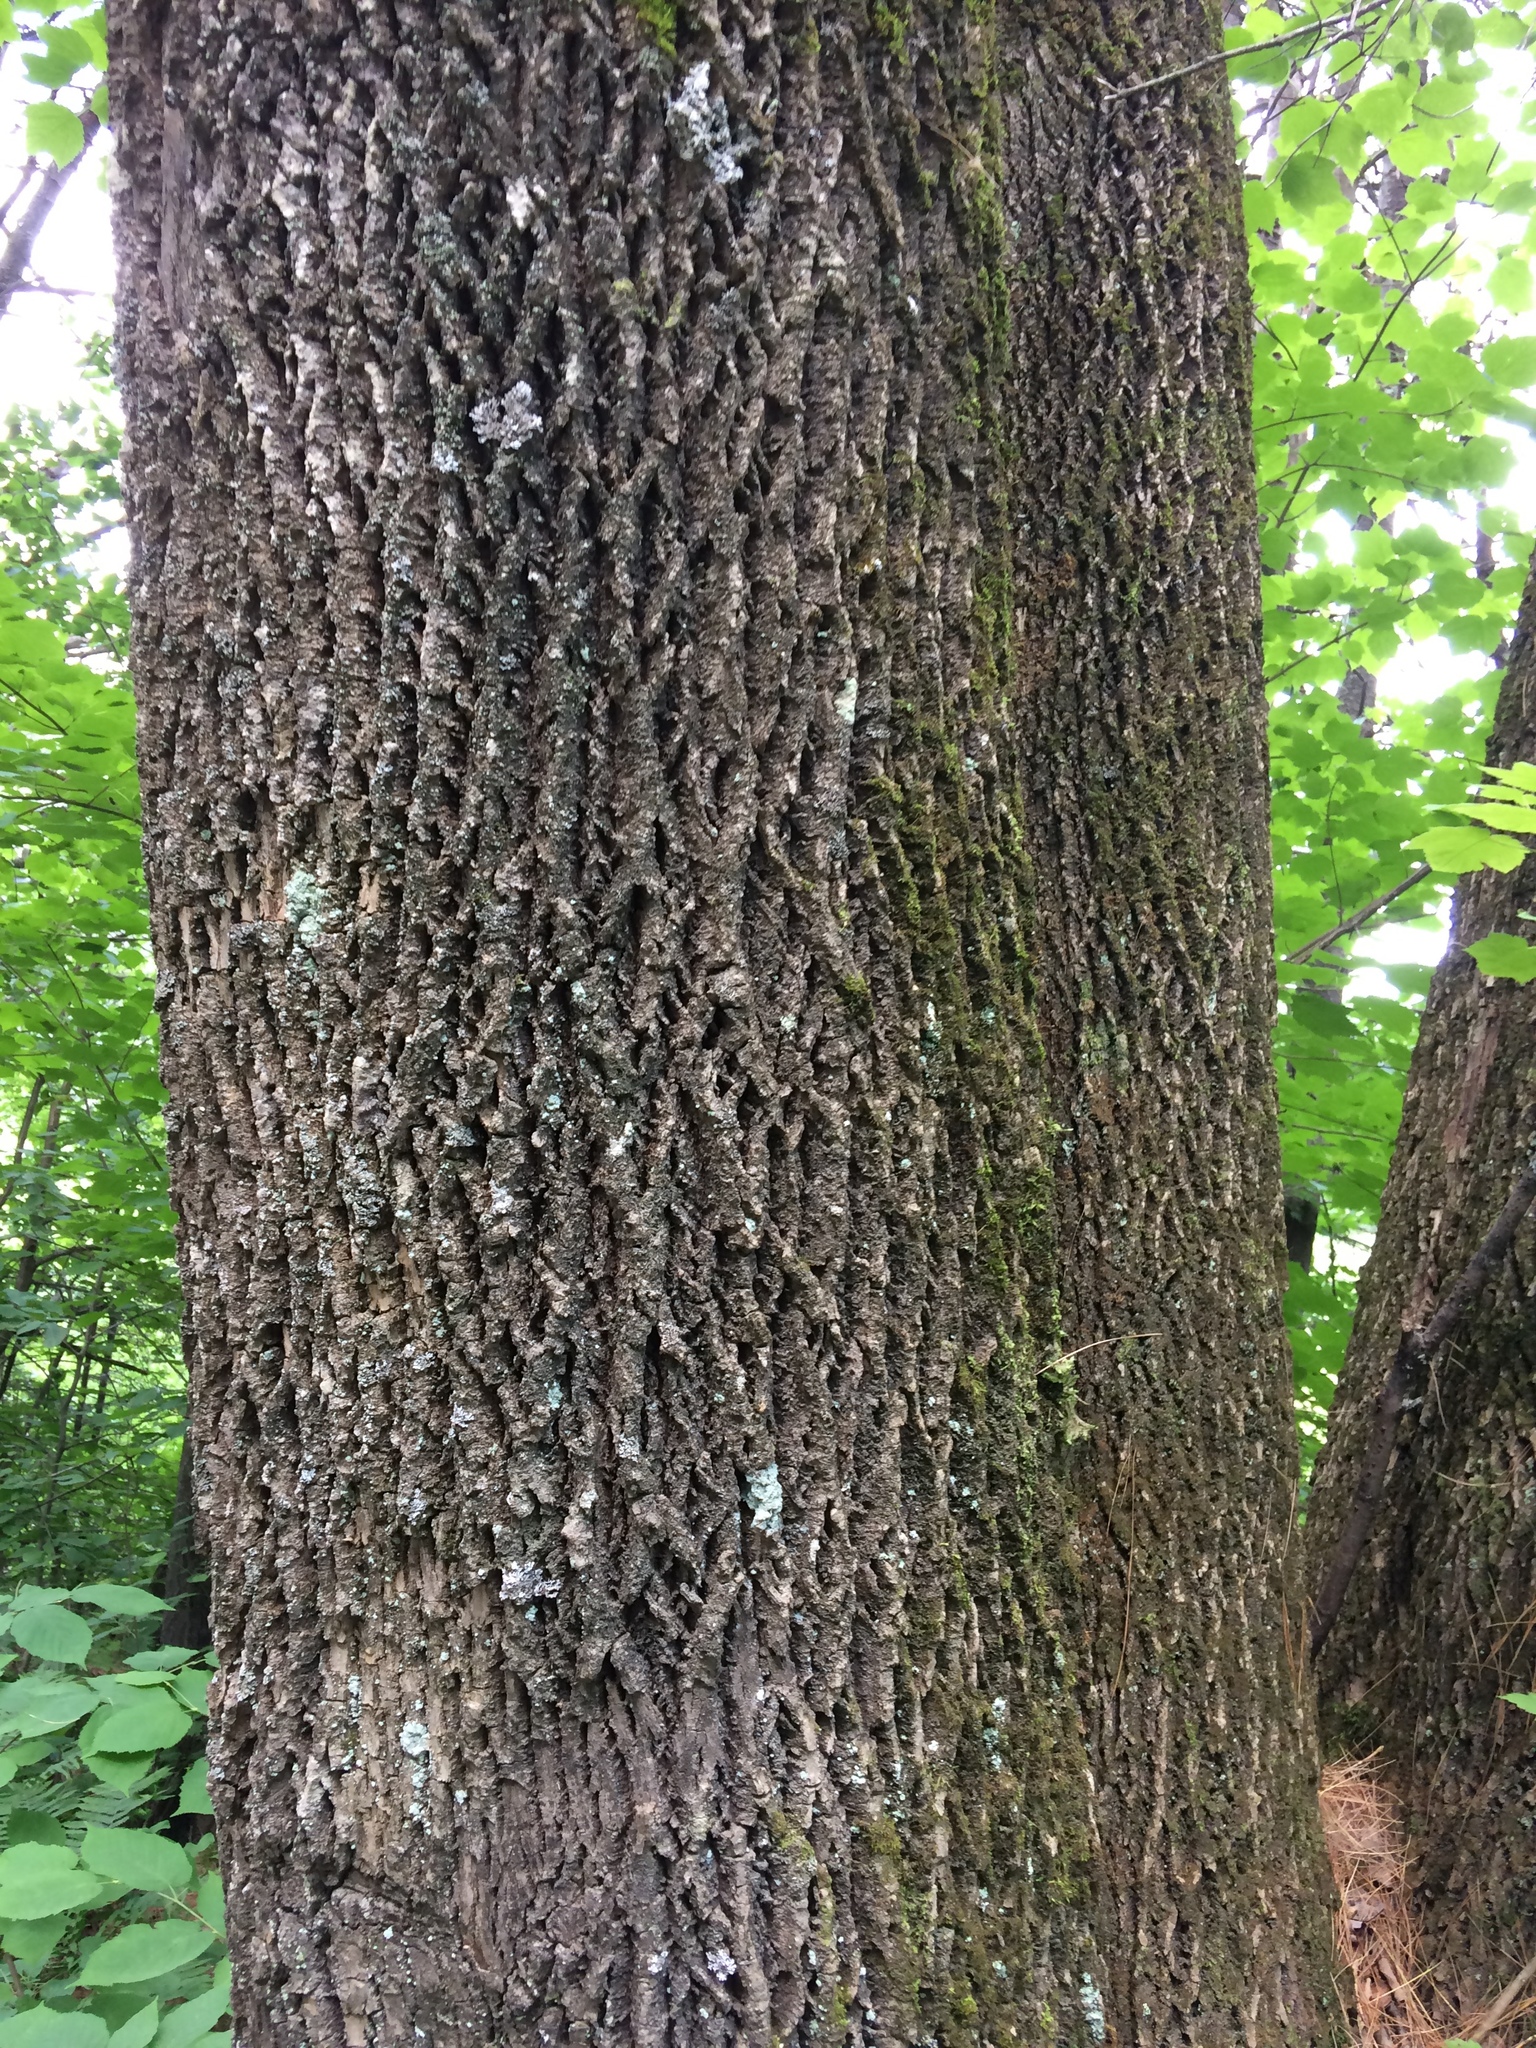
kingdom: Plantae
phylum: Tracheophyta
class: Magnoliopsida
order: Lamiales
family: Oleaceae
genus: Fraxinus
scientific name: Fraxinus americana
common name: White ash
